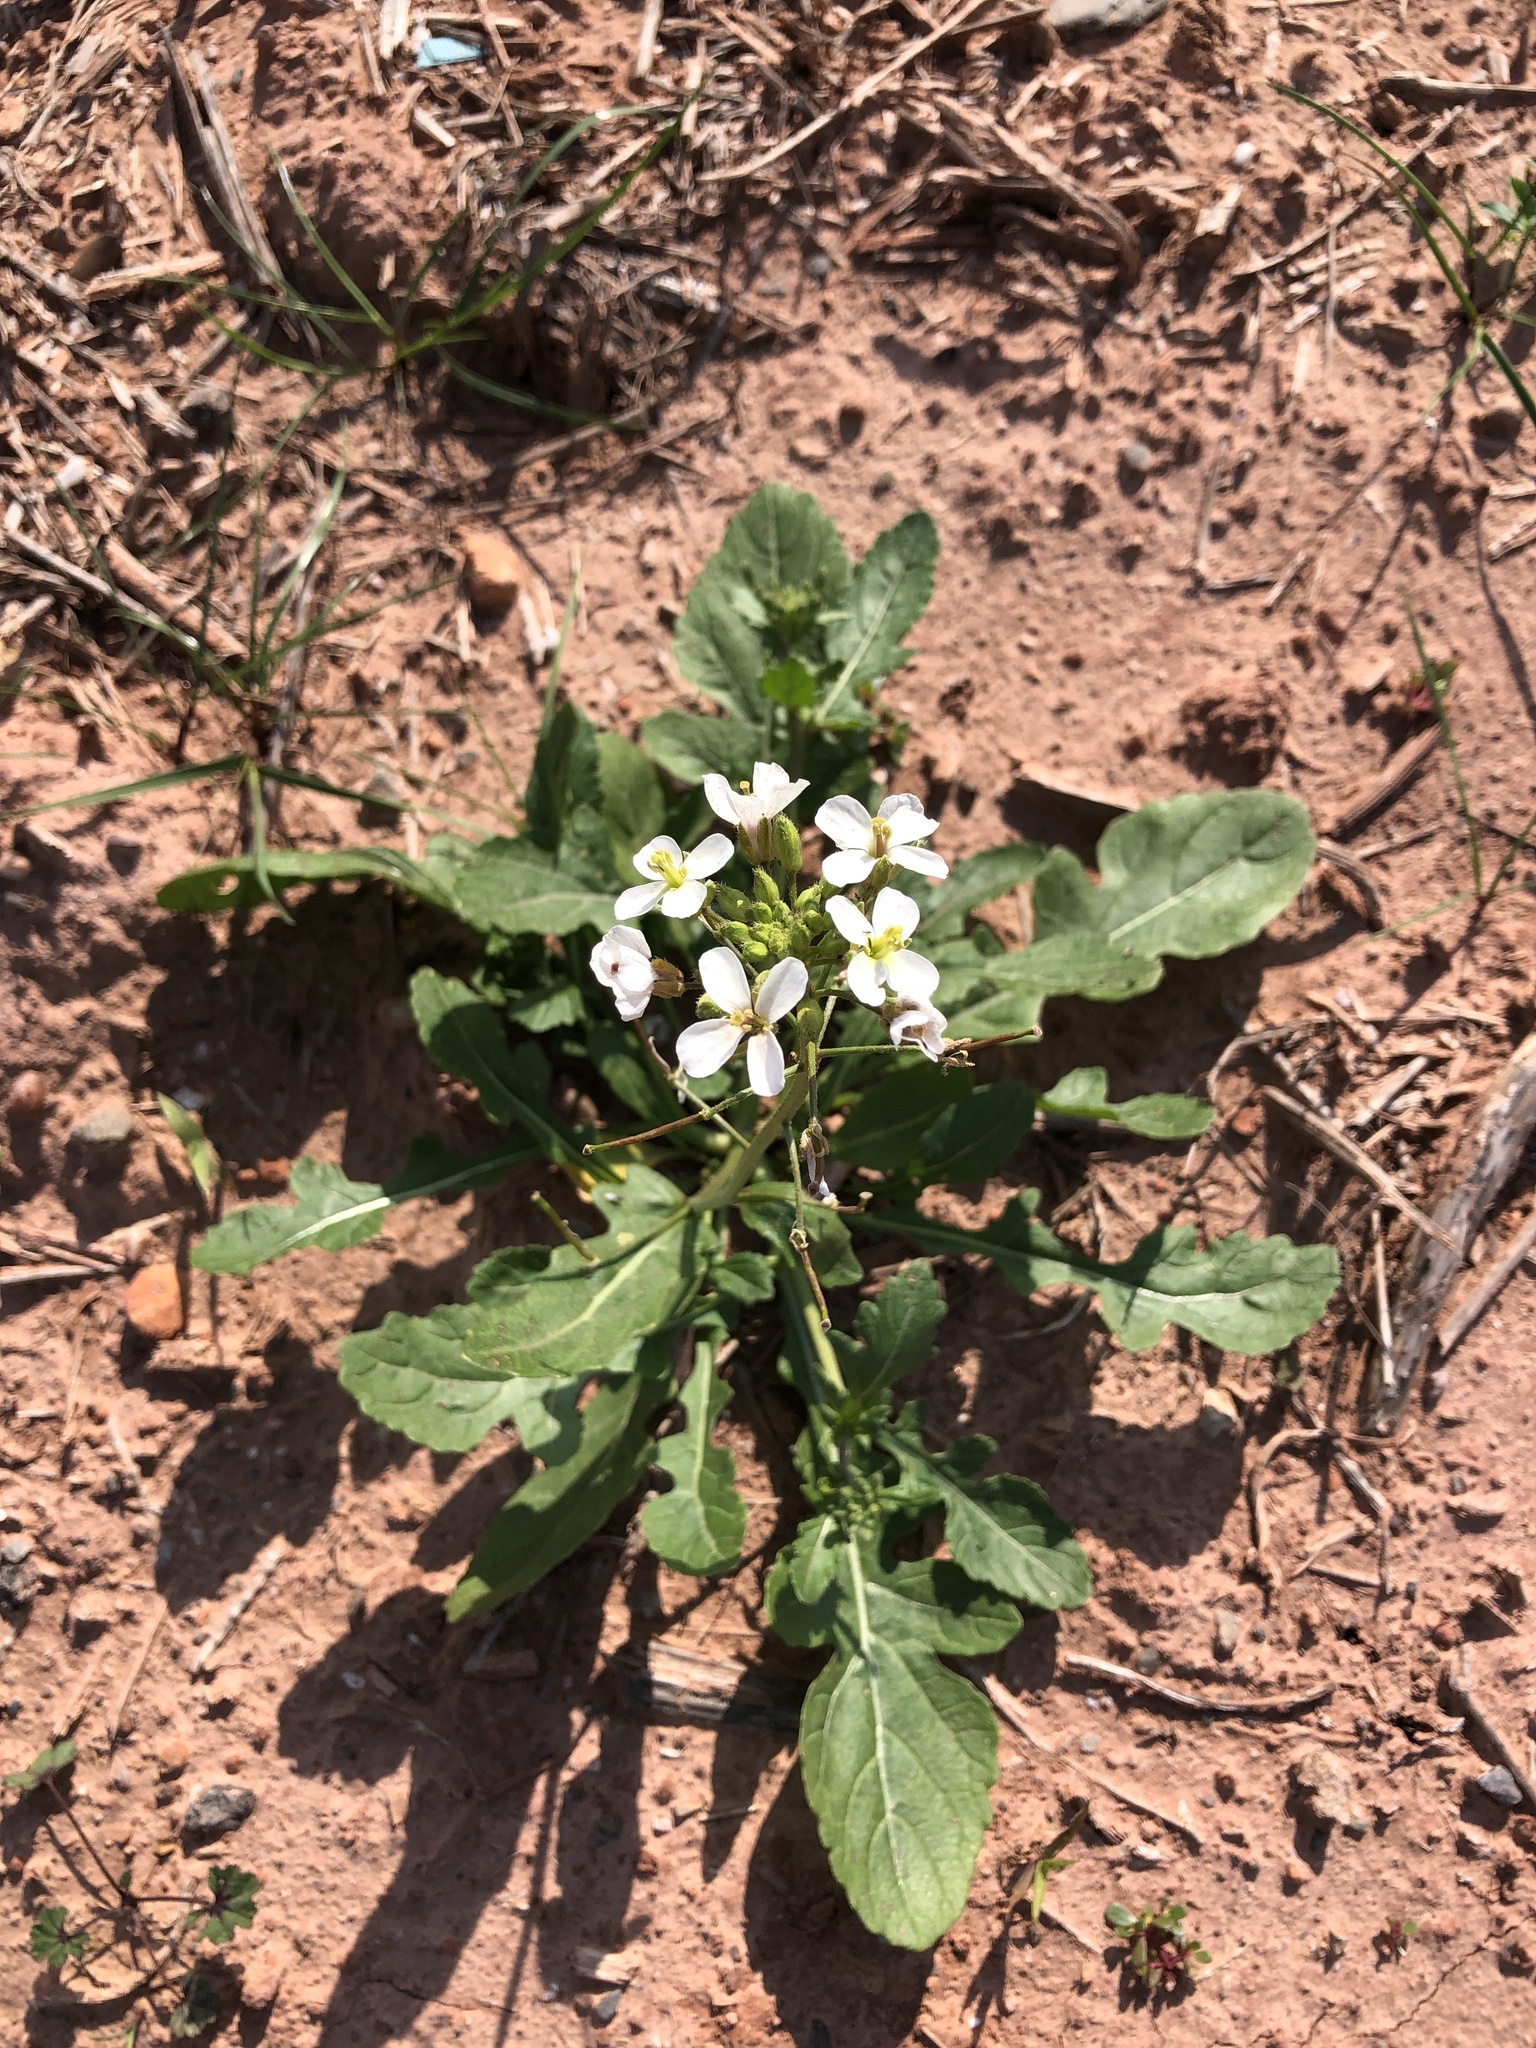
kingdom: Plantae
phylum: Tracheophyta
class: Magnoliopsida
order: Brassicales
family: Brassicaceae
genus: Diplotaxis
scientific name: Diplotaxis erucoides
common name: White rocket
